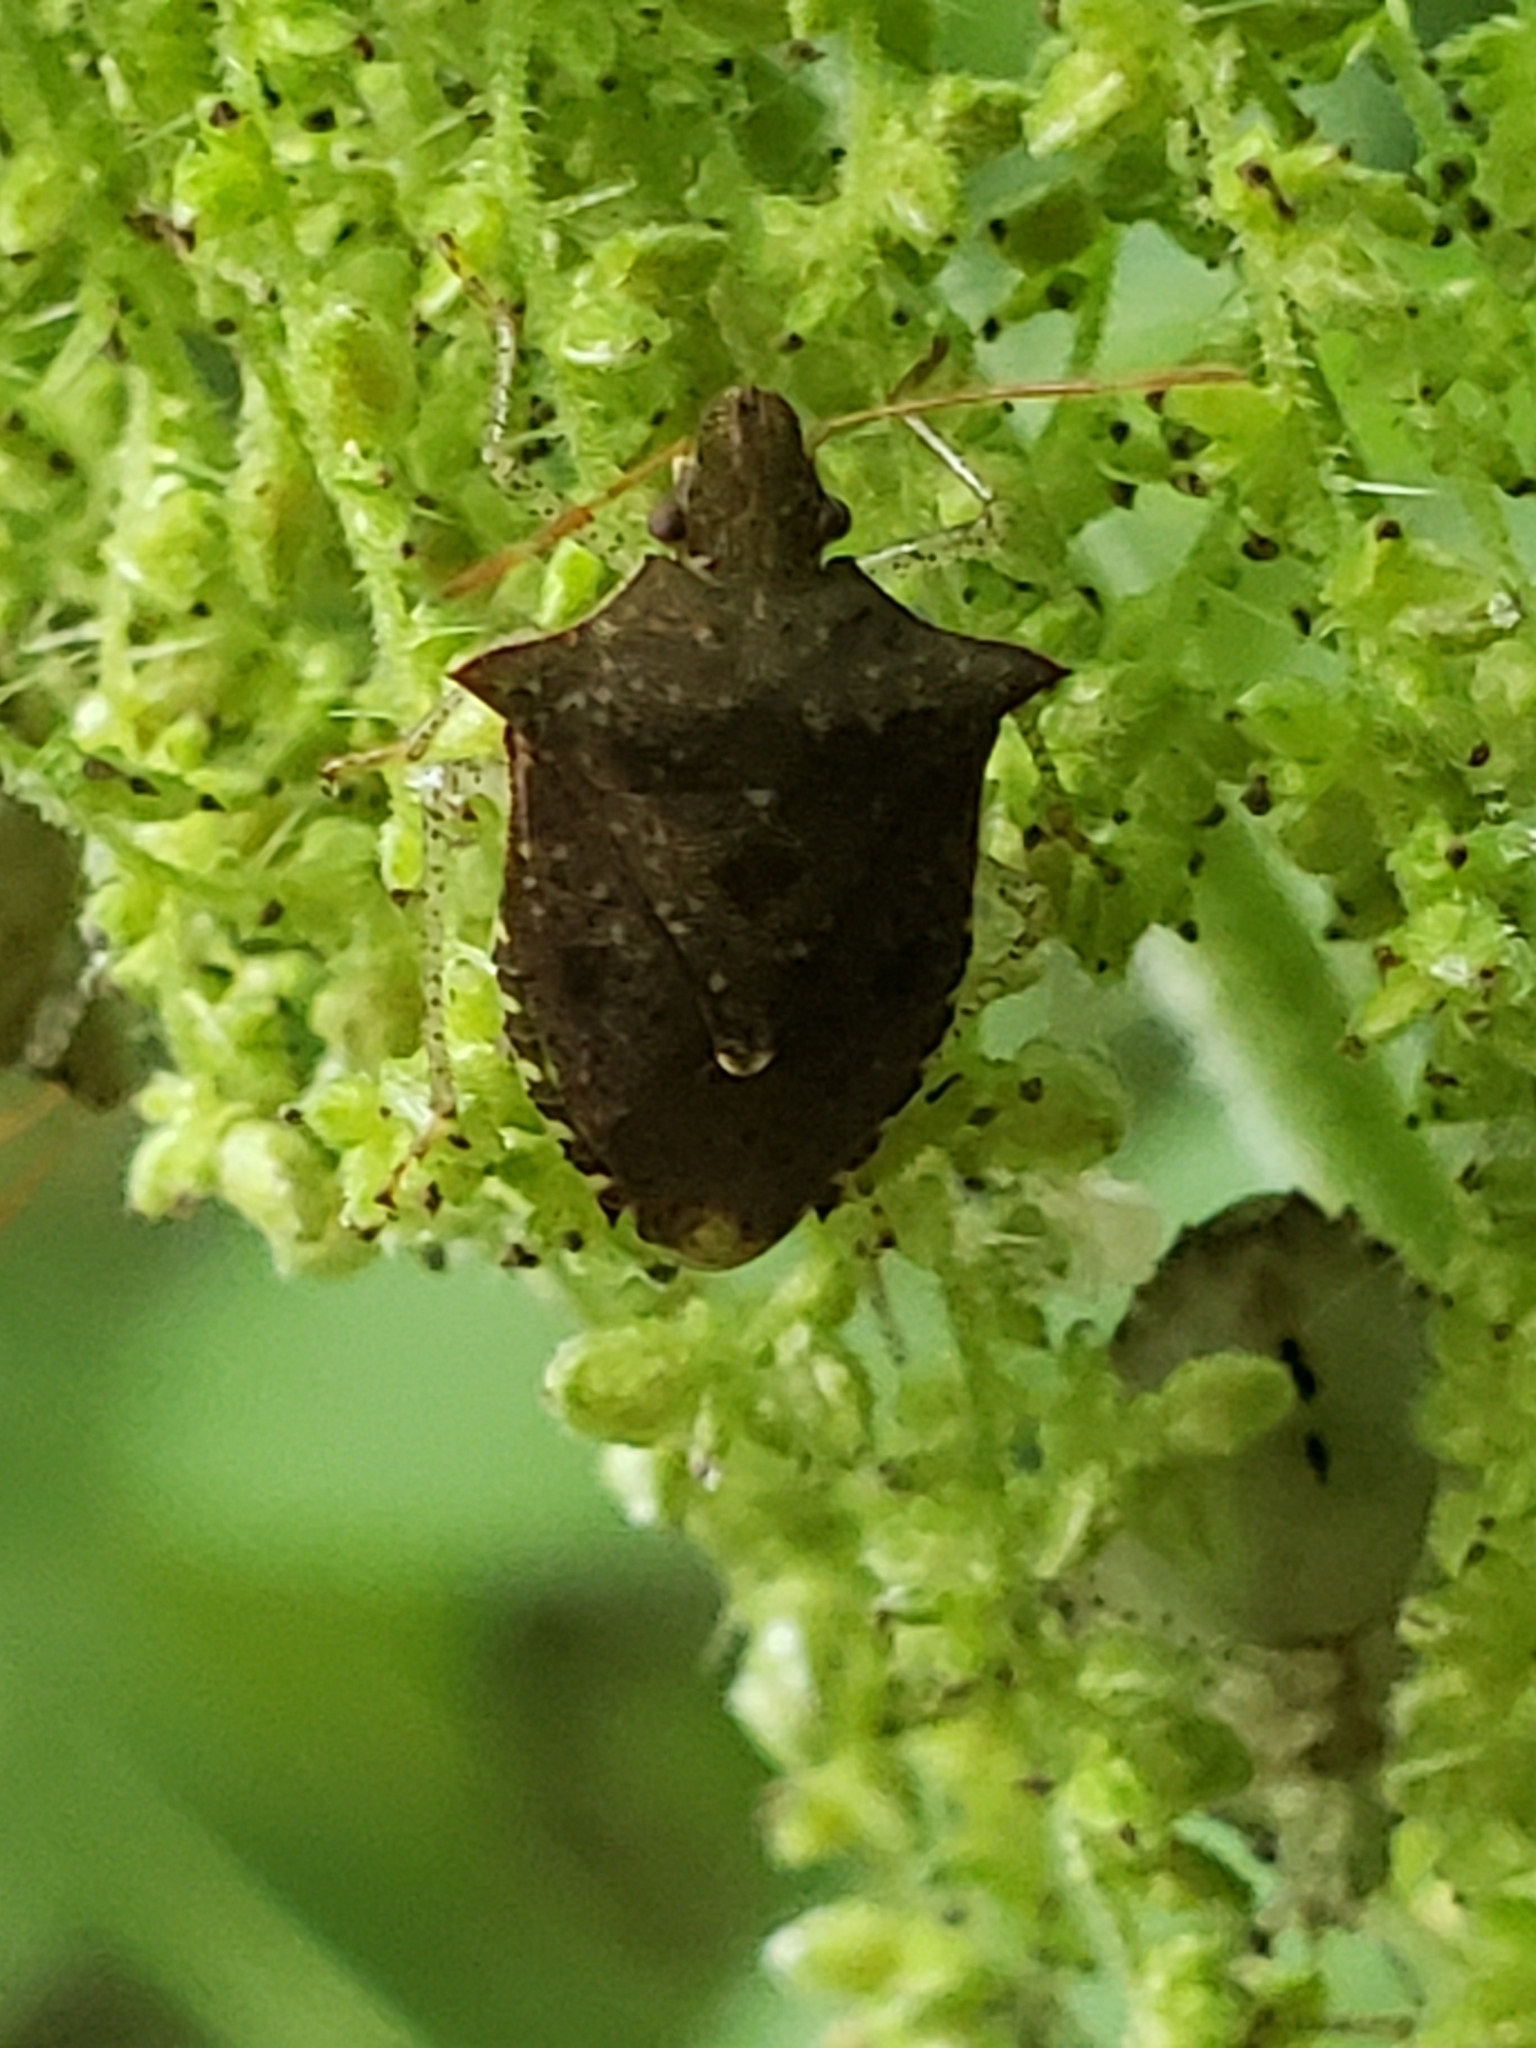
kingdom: Animalia
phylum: Arthropoda
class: Insecta
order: Hemiptera
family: Pentatomidae
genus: Euschistus
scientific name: Euschistus tristigmus
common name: Dusky stink bug
